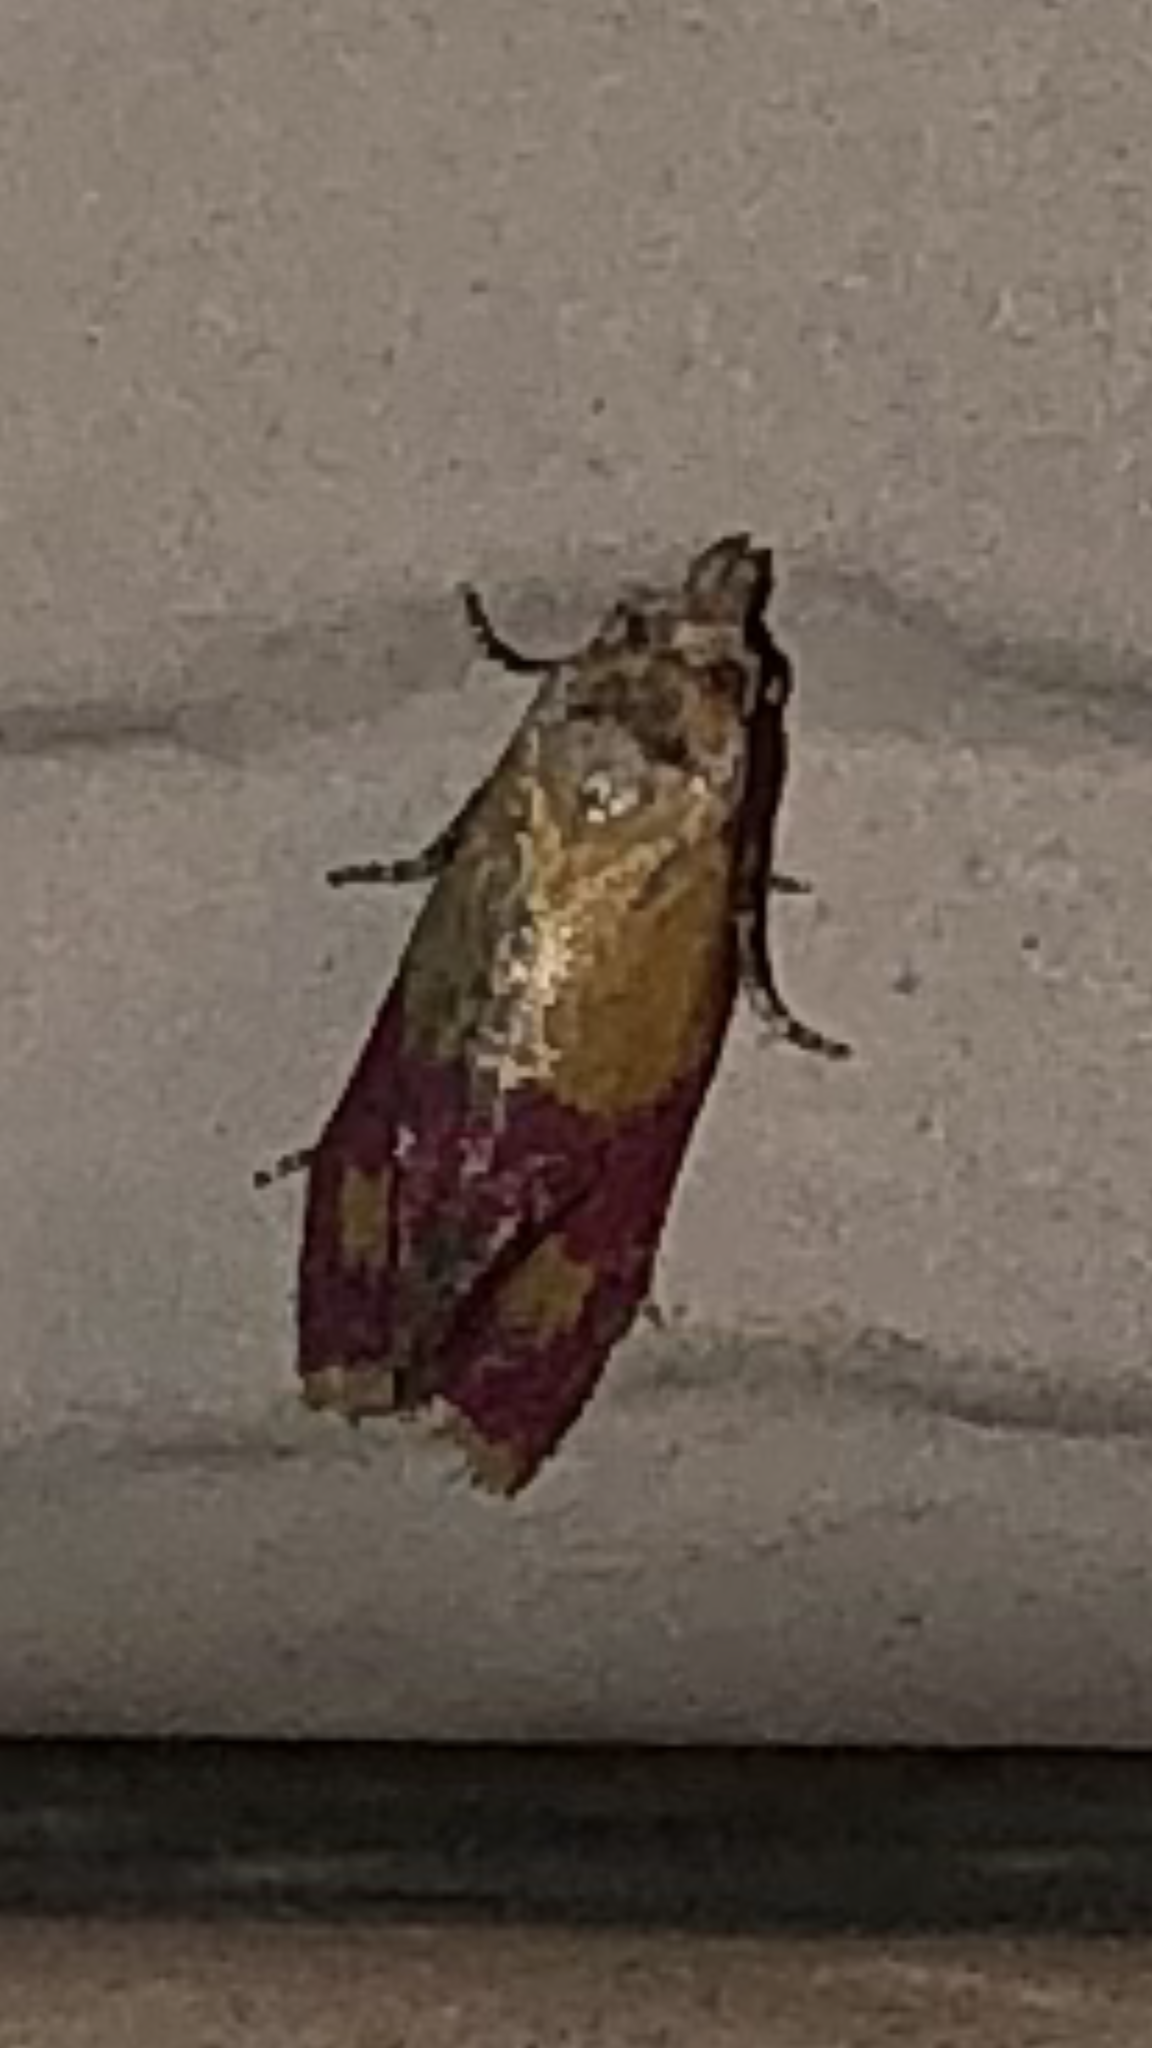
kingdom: Animalia
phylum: Arthropoda
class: Insecta
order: Lepidoptera
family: Tortricidae
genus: Conchylis
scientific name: Conchylis oenotherana
